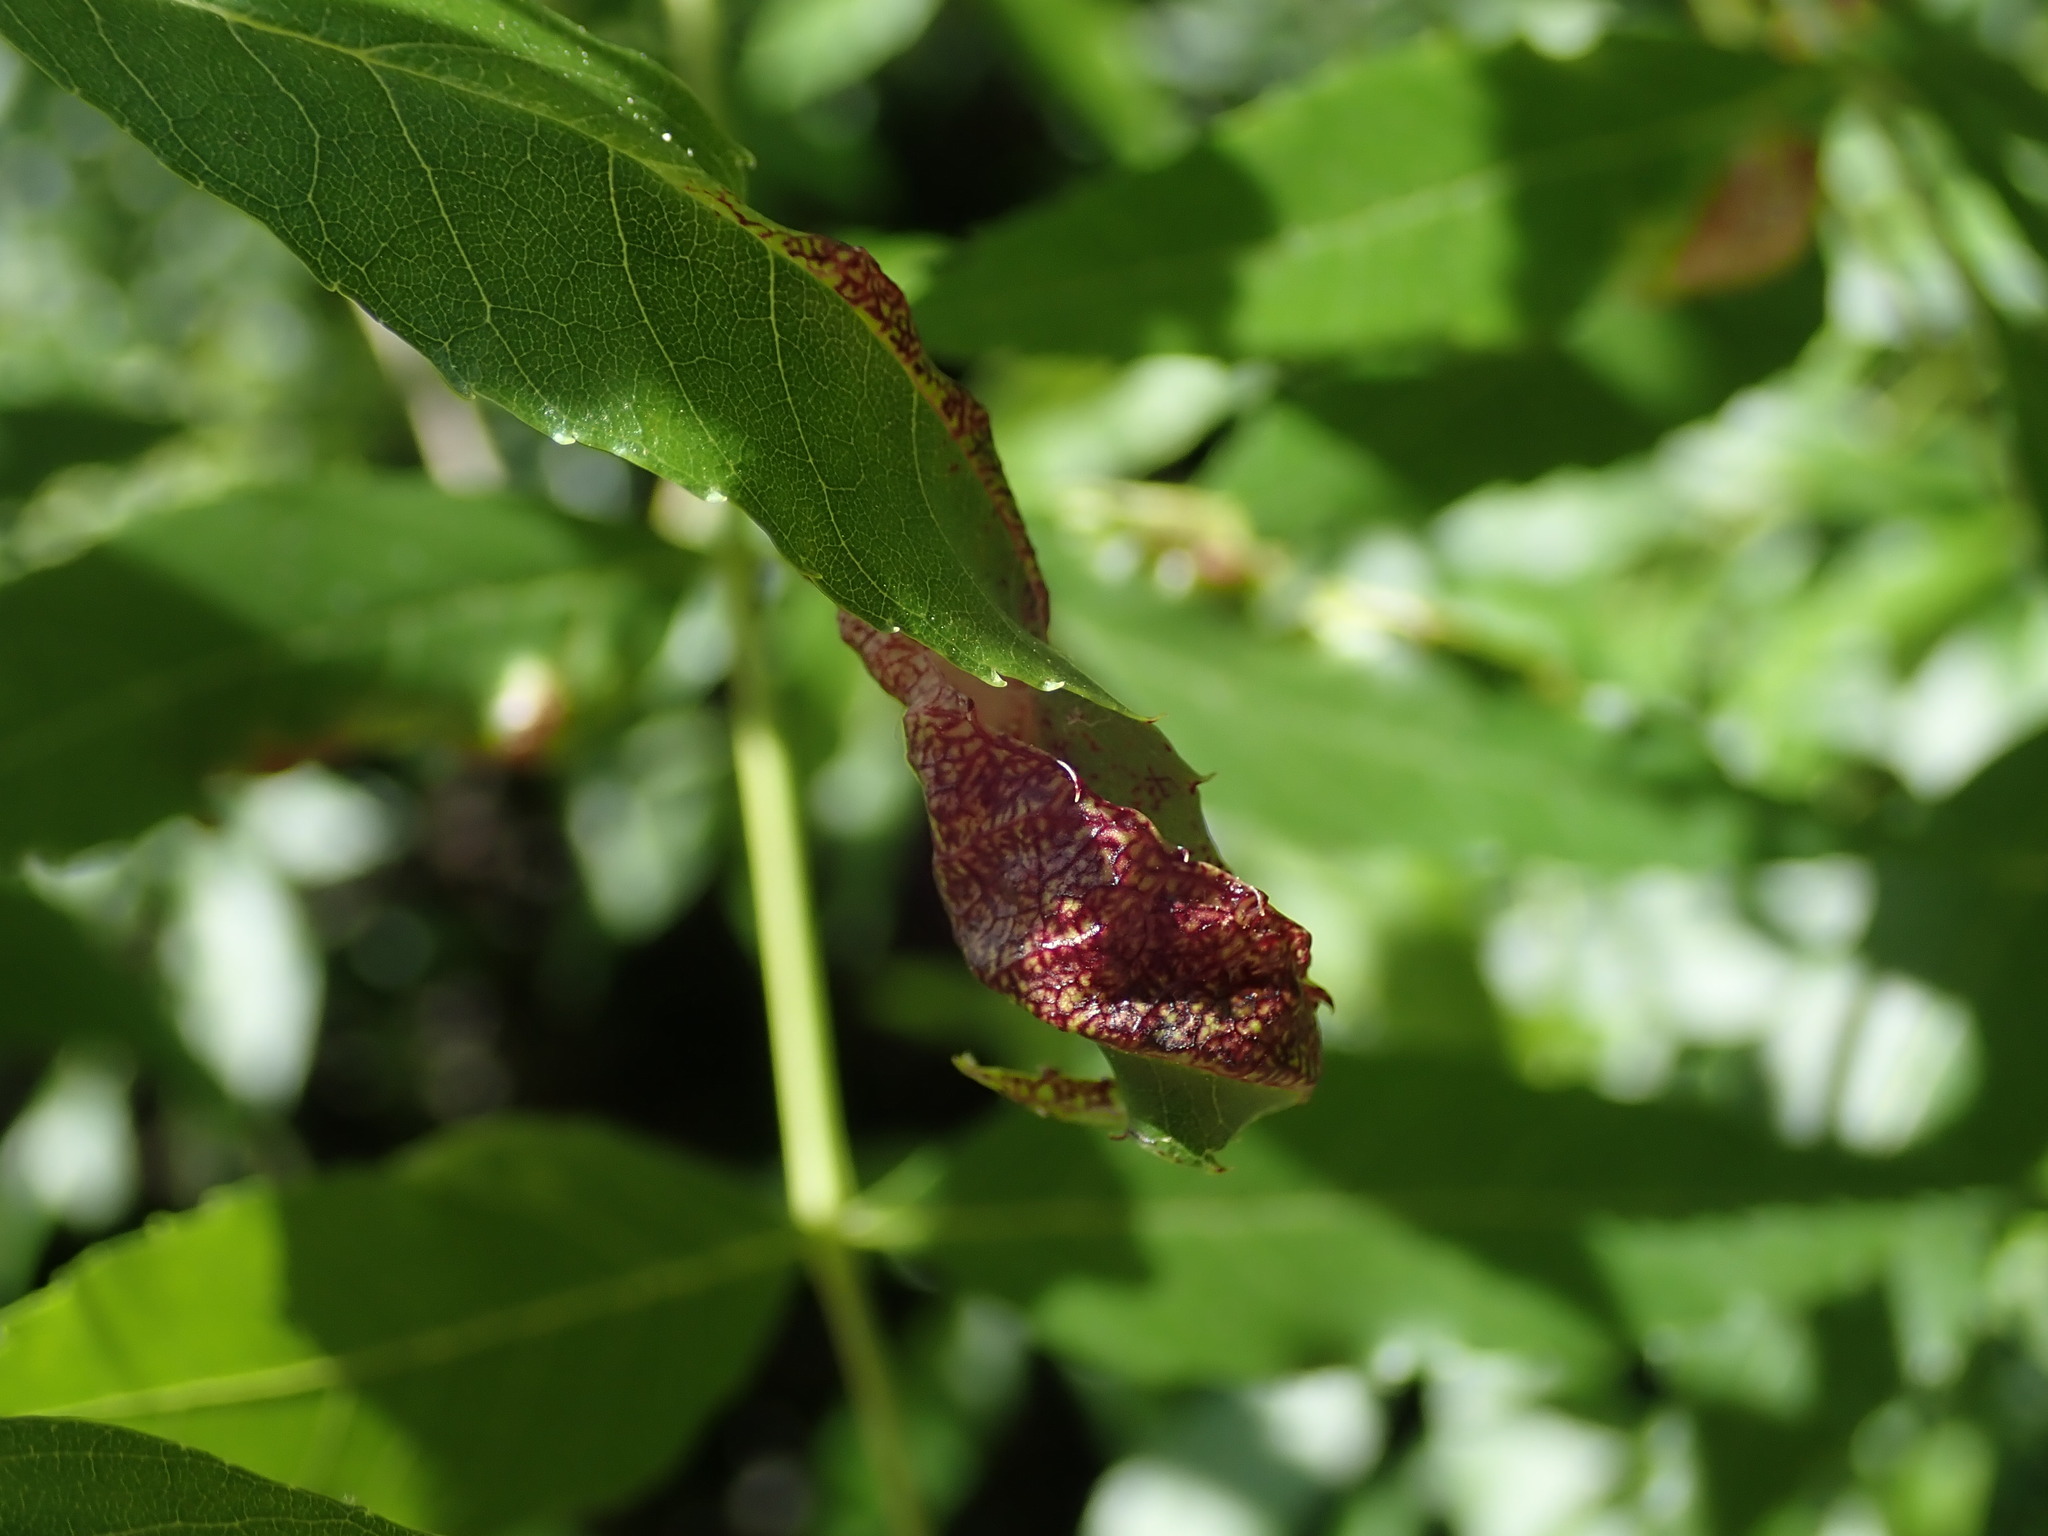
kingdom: Animalia
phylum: Arthropoda
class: Insecta
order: Hemiptera
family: Liviidae
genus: Psyllopsis
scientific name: Psyllopsis fraxini
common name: Jumping plant louse
